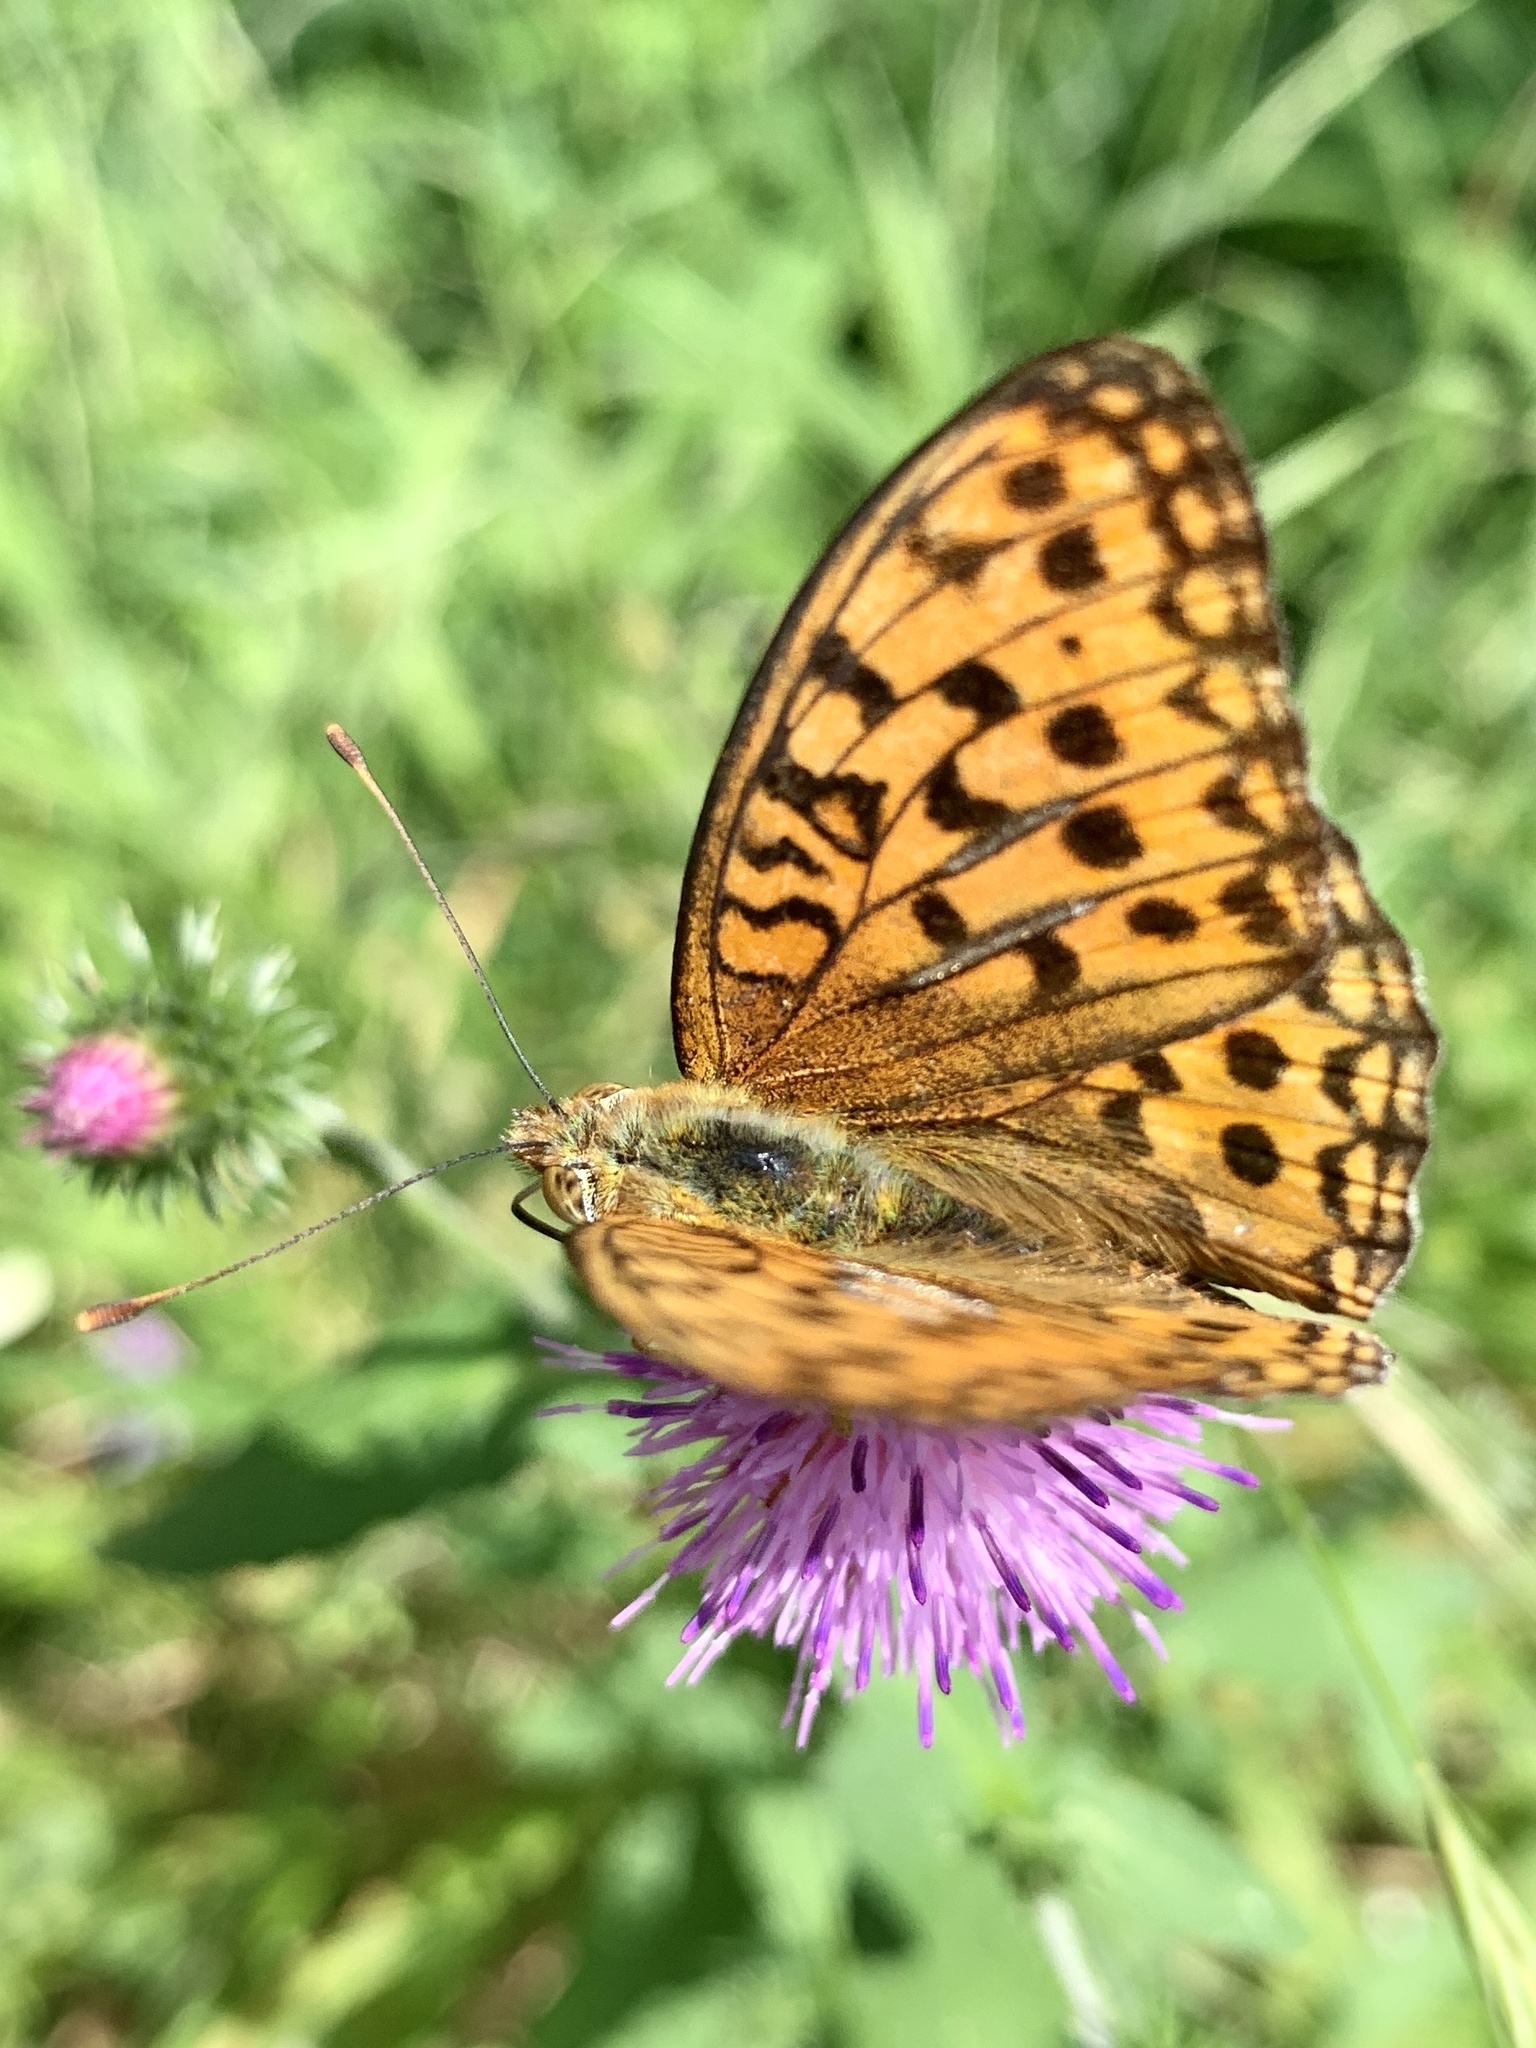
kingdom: Animalia
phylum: Arthropoda
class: Insecta
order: Lepidoptera
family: Nymphalidae
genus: Fabriciana
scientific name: Fabriciana adippe
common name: High brown fritillary
